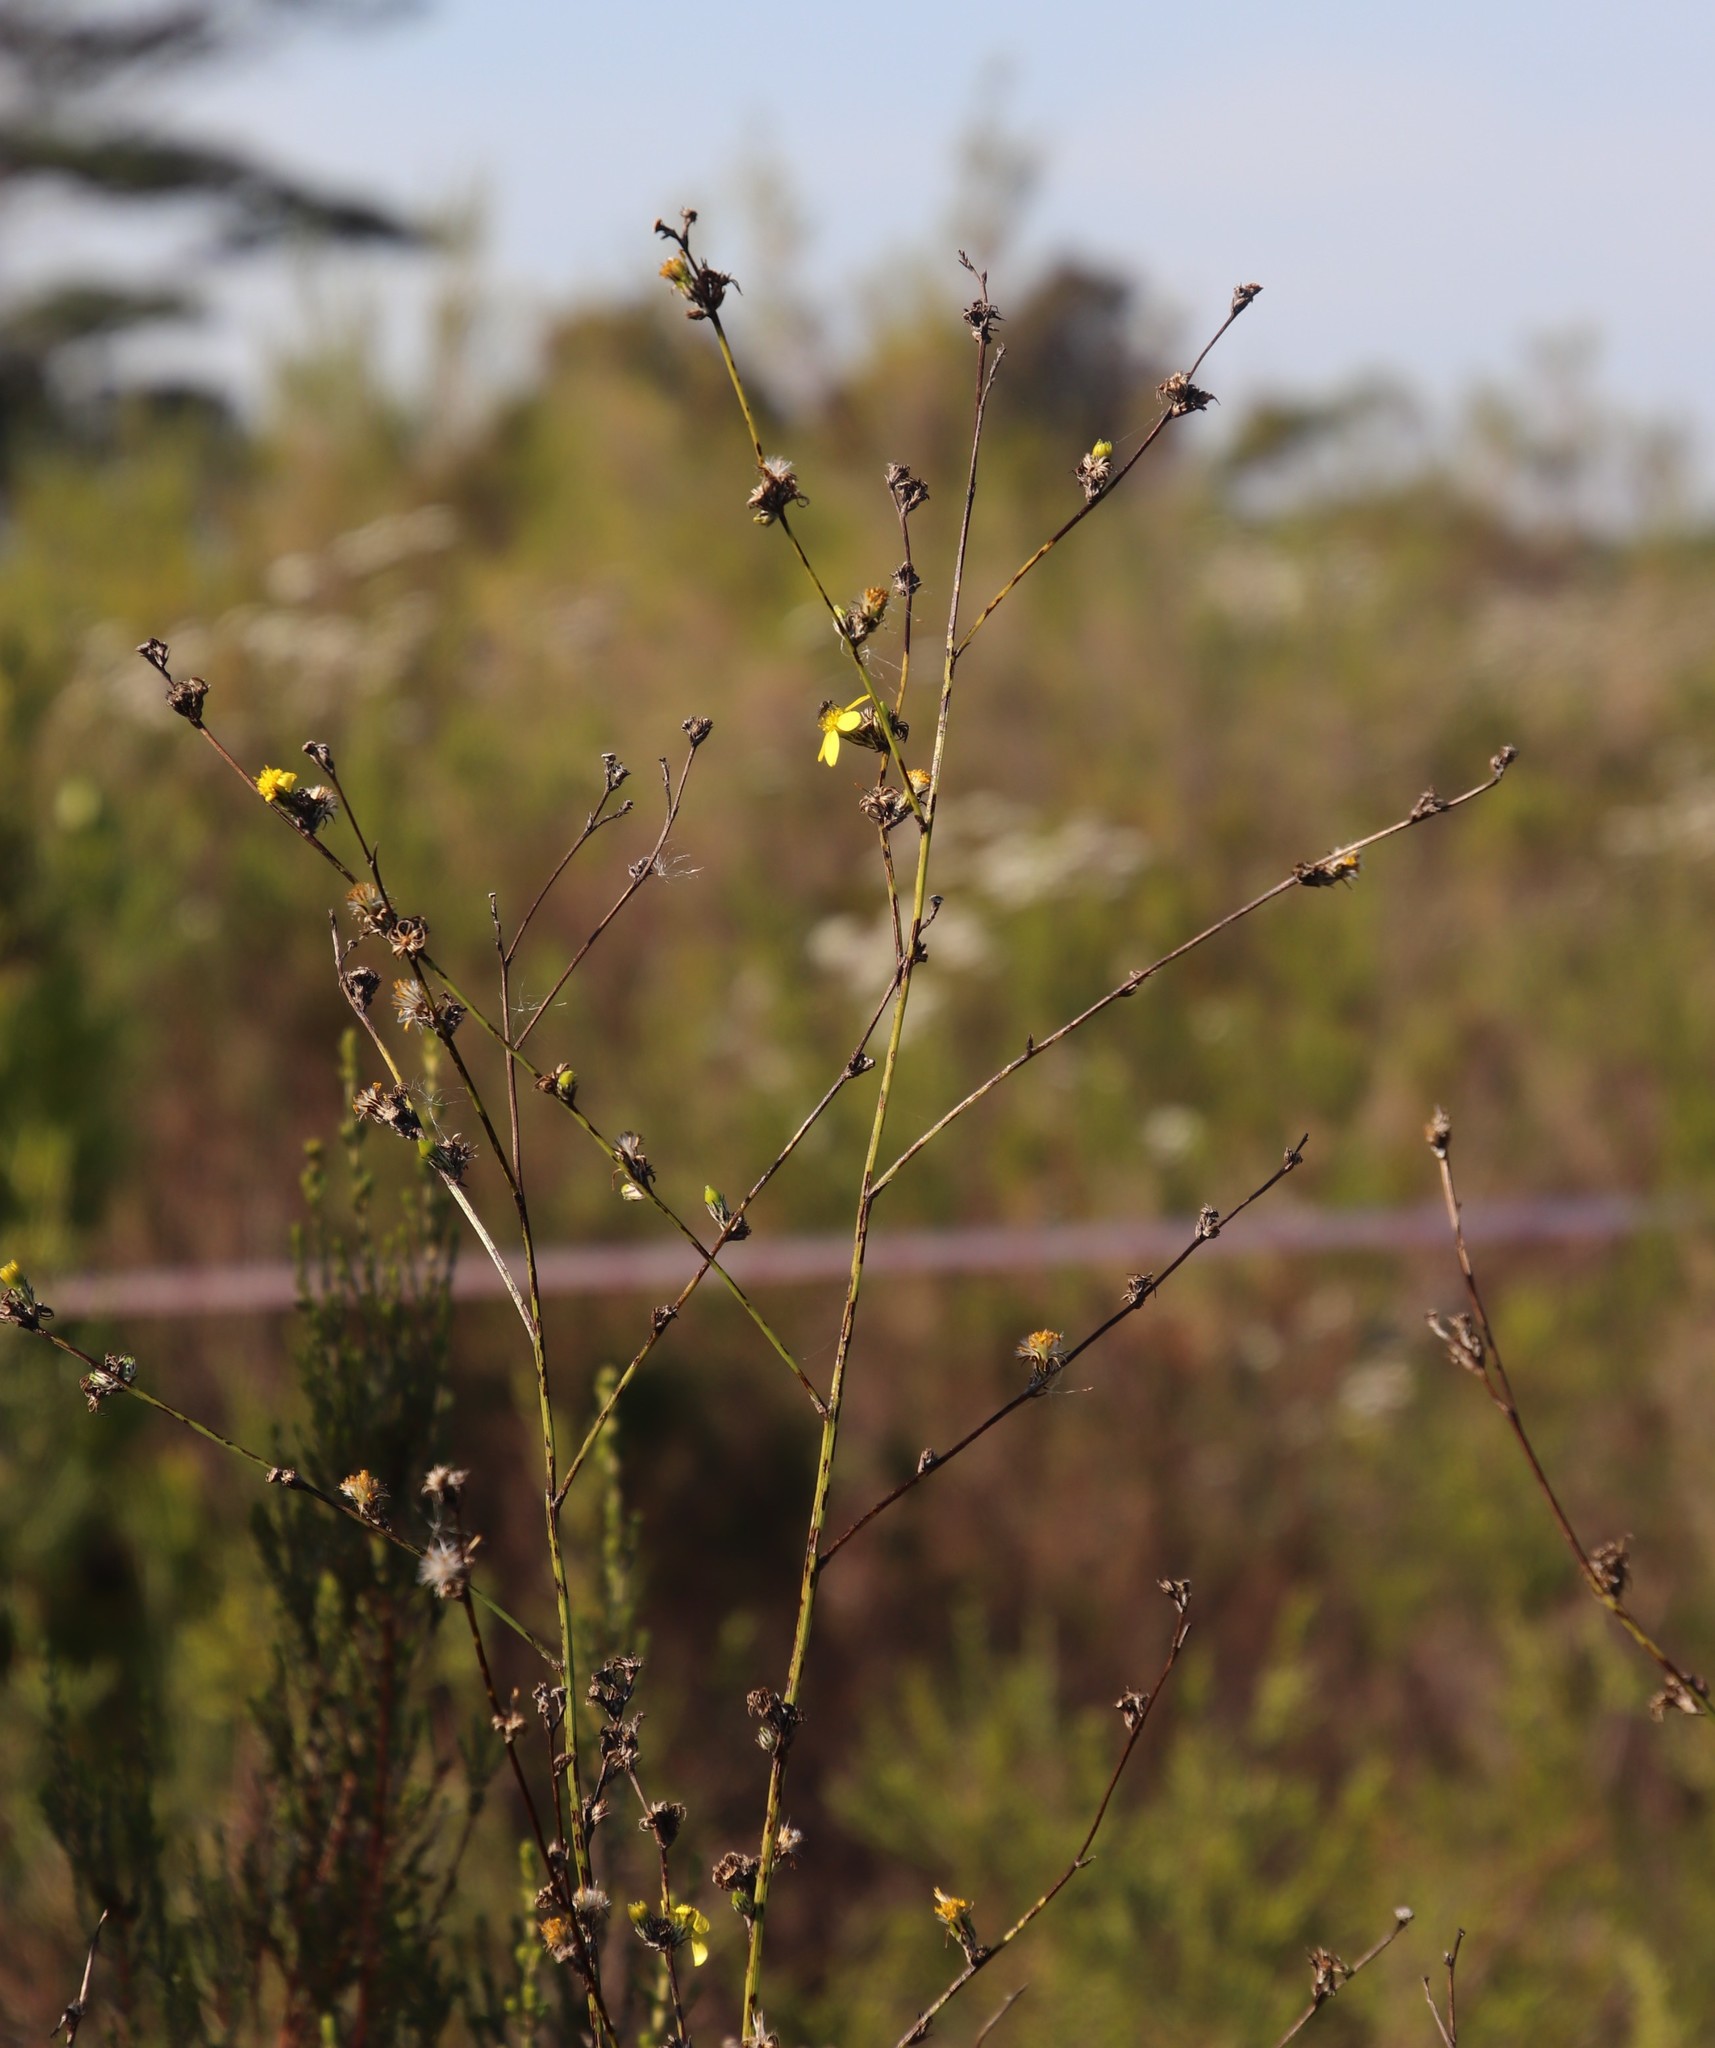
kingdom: Plantae
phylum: Tracheophyta
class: Magnoliopsida
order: Asterales
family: Asteraceae
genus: Senecio
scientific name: Senecio pubigerus
